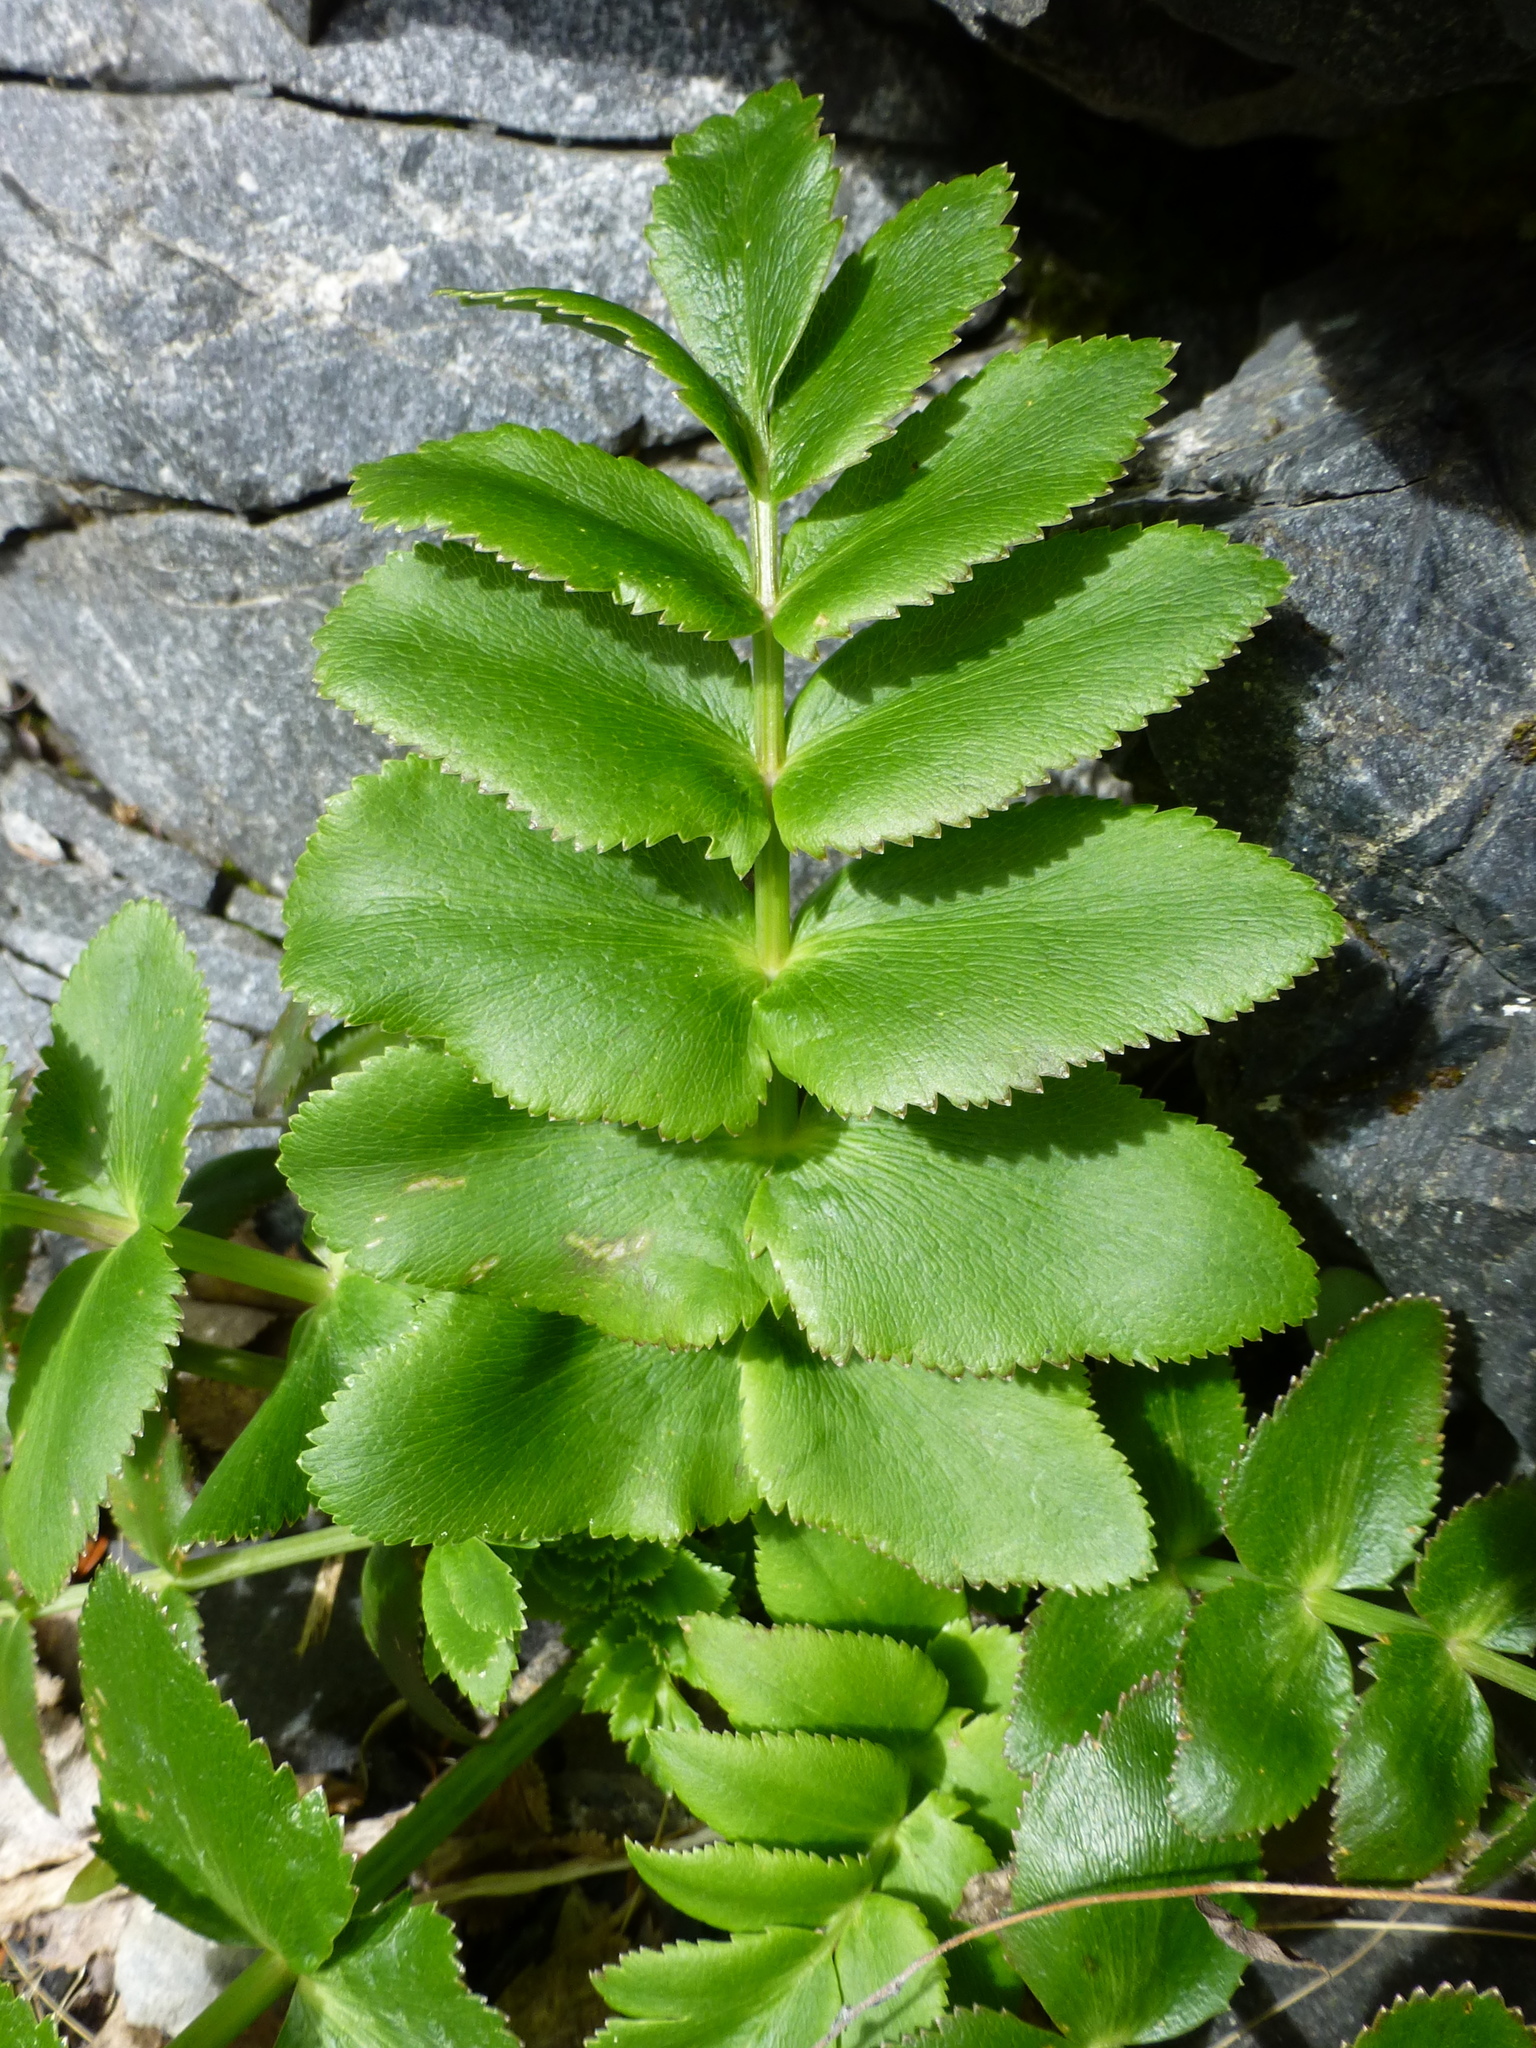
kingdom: Plantae
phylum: Tracheophyta
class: Magnoliopsida
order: Apiales
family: Apiaceae
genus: Gingidia
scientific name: Gingidia montana
